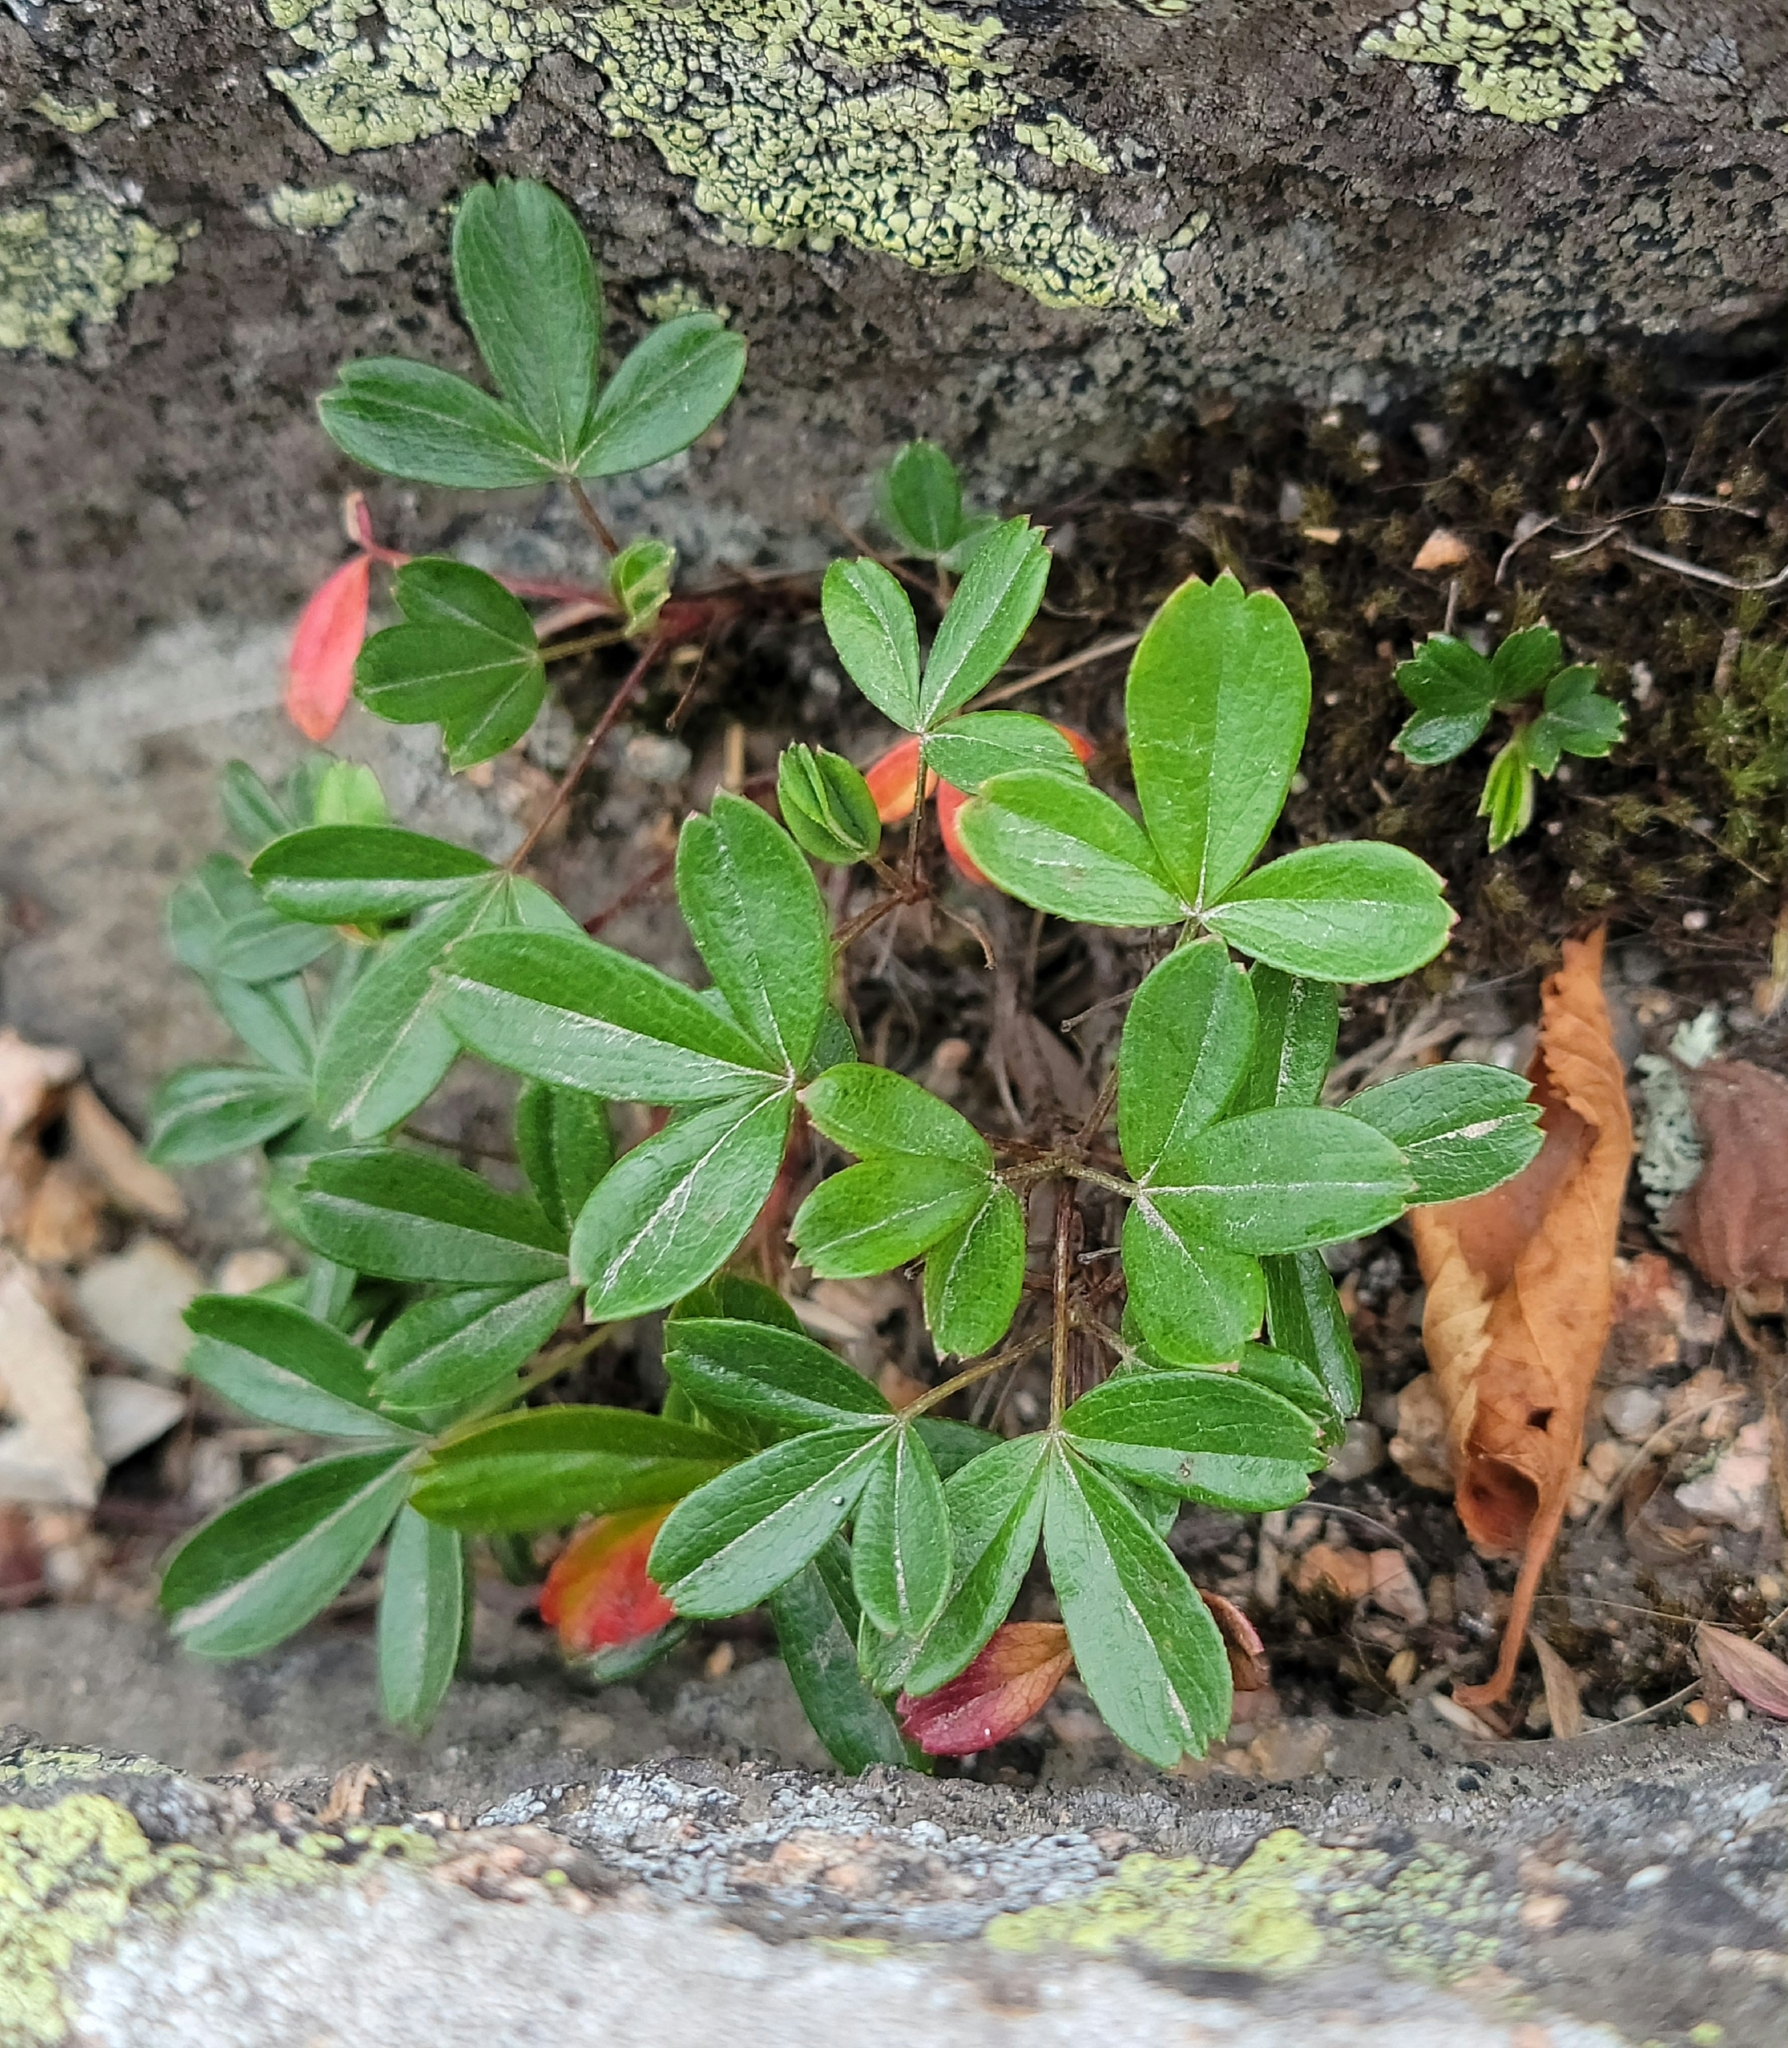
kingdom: Plantae
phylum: Tracheophyta
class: Magnoliopsida
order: Rosales
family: Rosaceae
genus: Sibbaldia
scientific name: Sibbaldia tridentata
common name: Three-toothed cinquefoil
